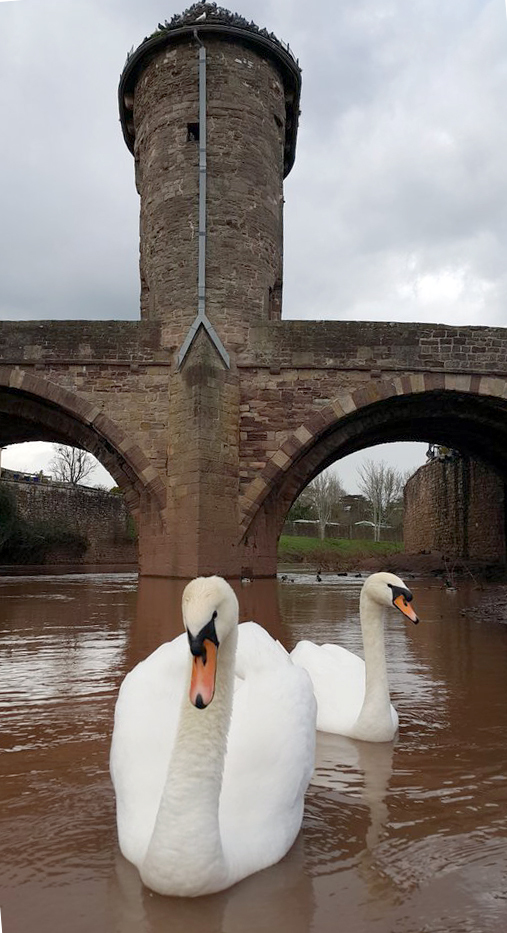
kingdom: Animalia
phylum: Chordata
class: Aves
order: Anseriformes
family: Anatidae
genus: Cygnus
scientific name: Cygnus olor
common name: Mute swan
